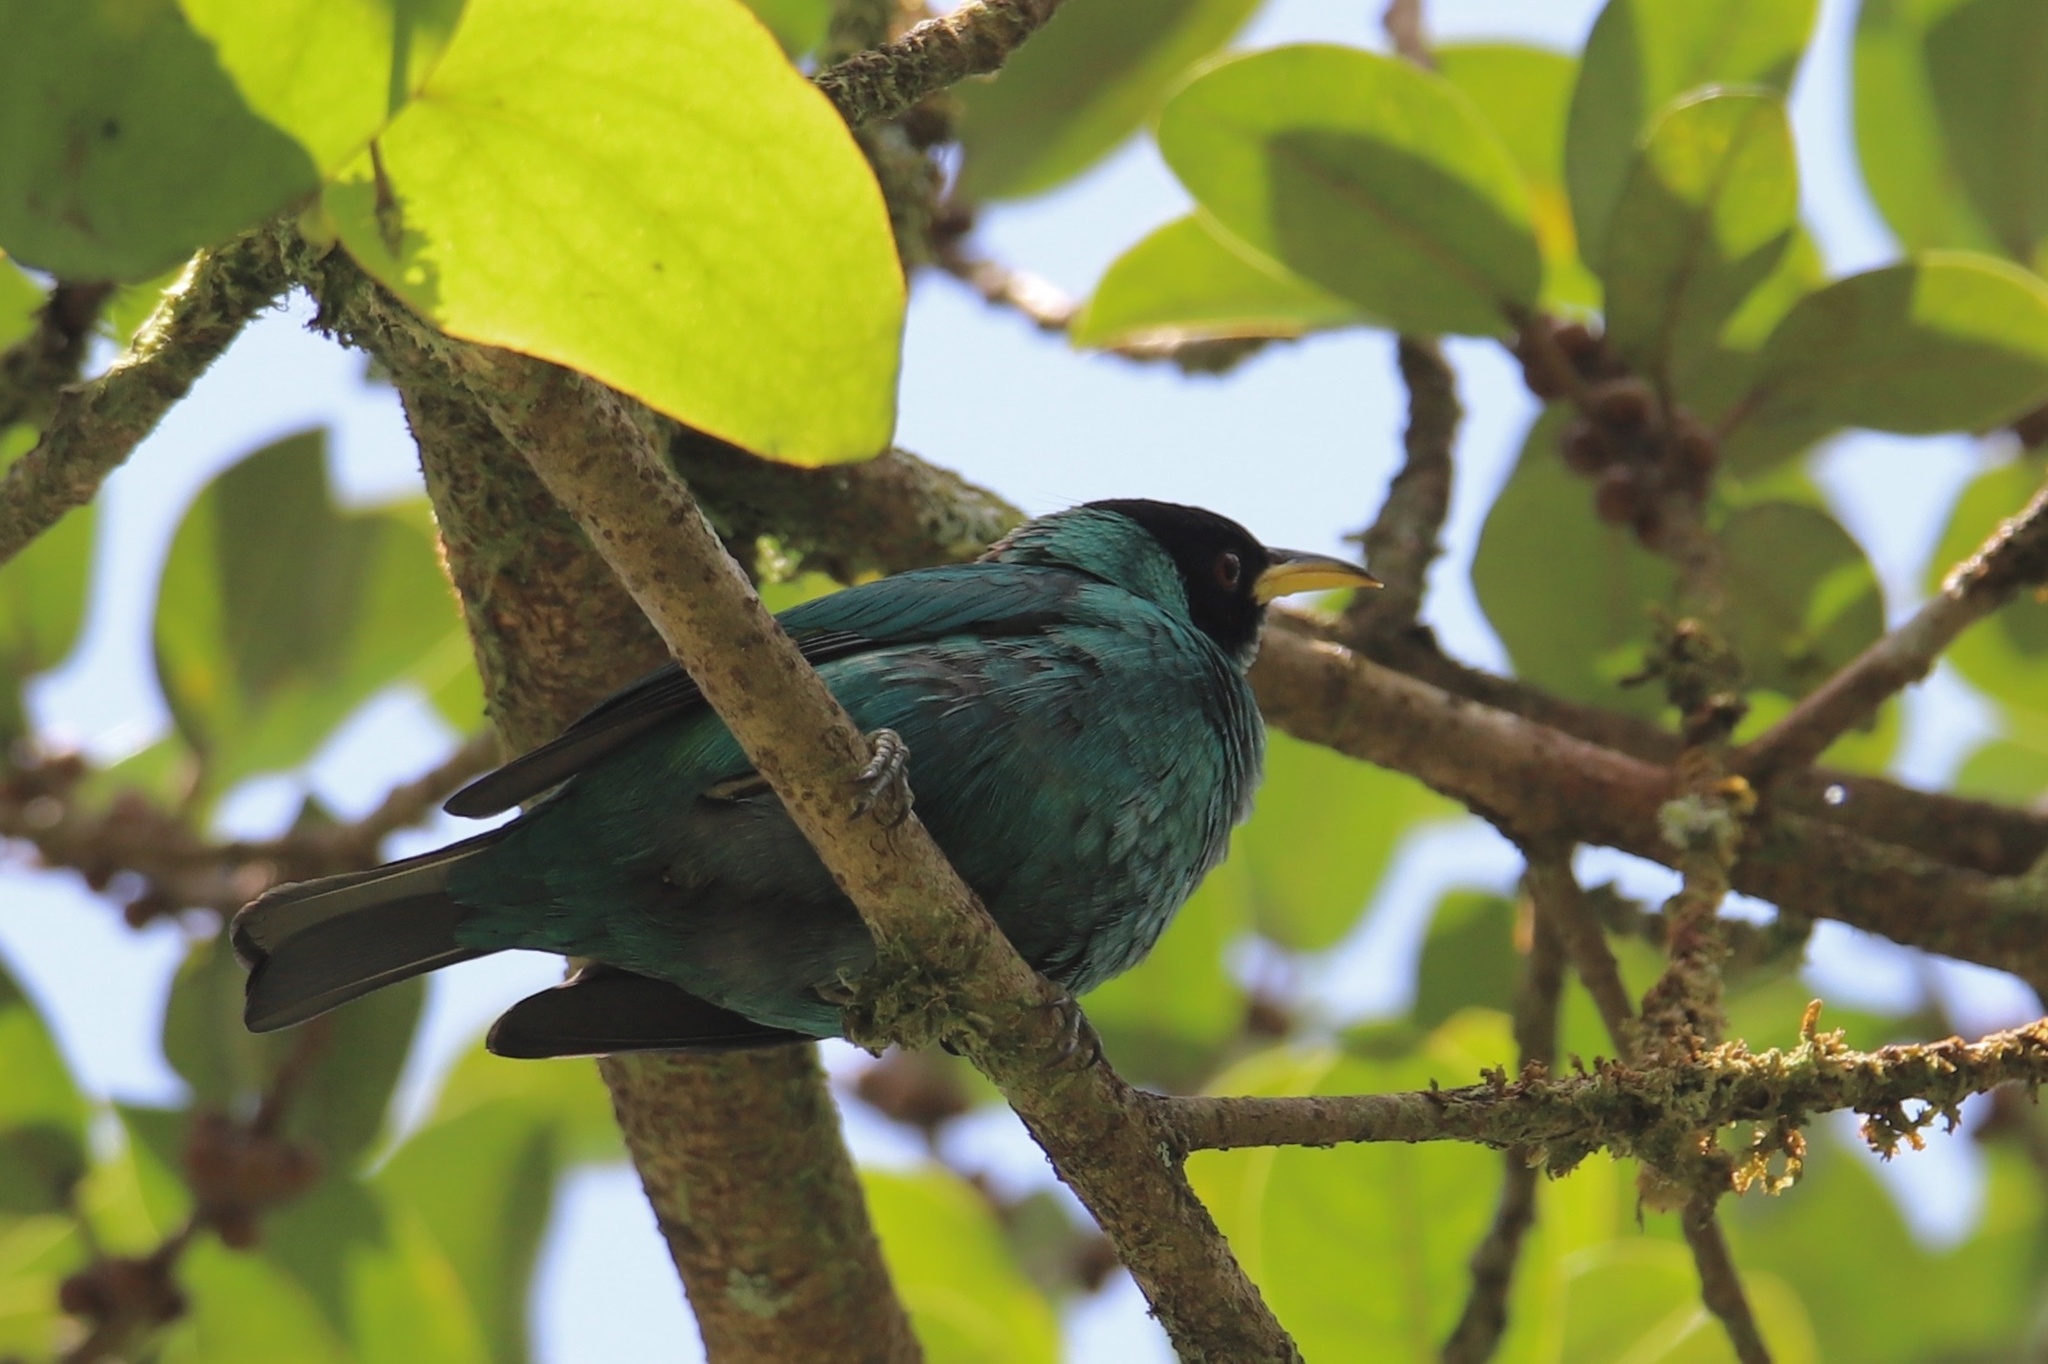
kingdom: Animalia
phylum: Chordata
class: Aves
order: Passeriformes
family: Thraupidae
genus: Chlorophanes
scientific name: Chlorophanes spiza
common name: Green honeycreeper
